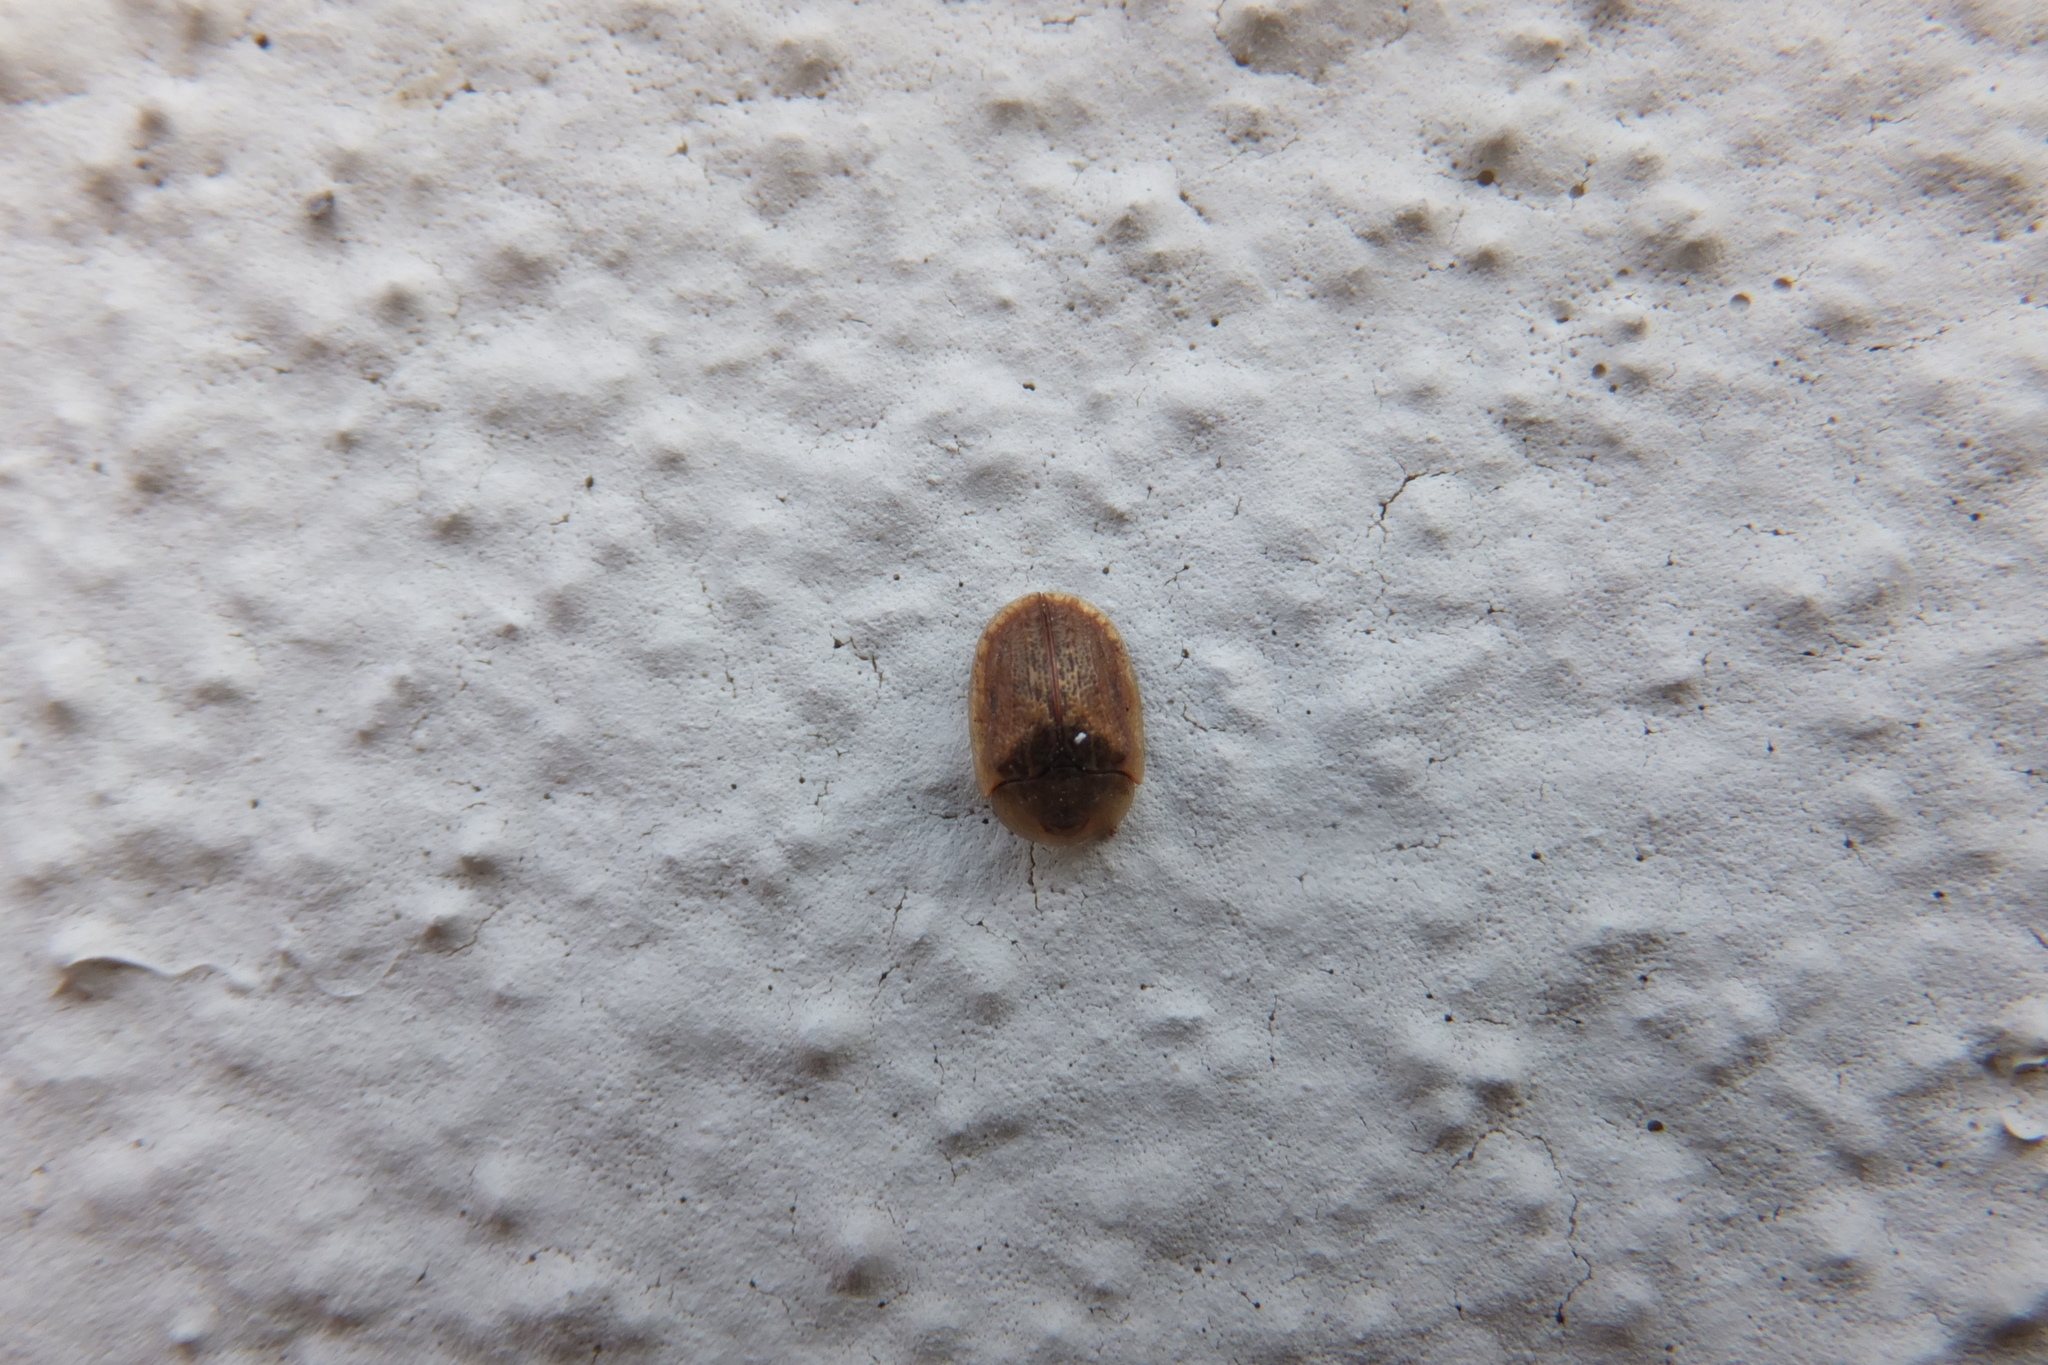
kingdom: Animalia
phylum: Arthropoda
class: Insecta
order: Coleoptera
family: Chrysomelidae
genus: Hypocassida
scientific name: Hypocassida subferruginea
